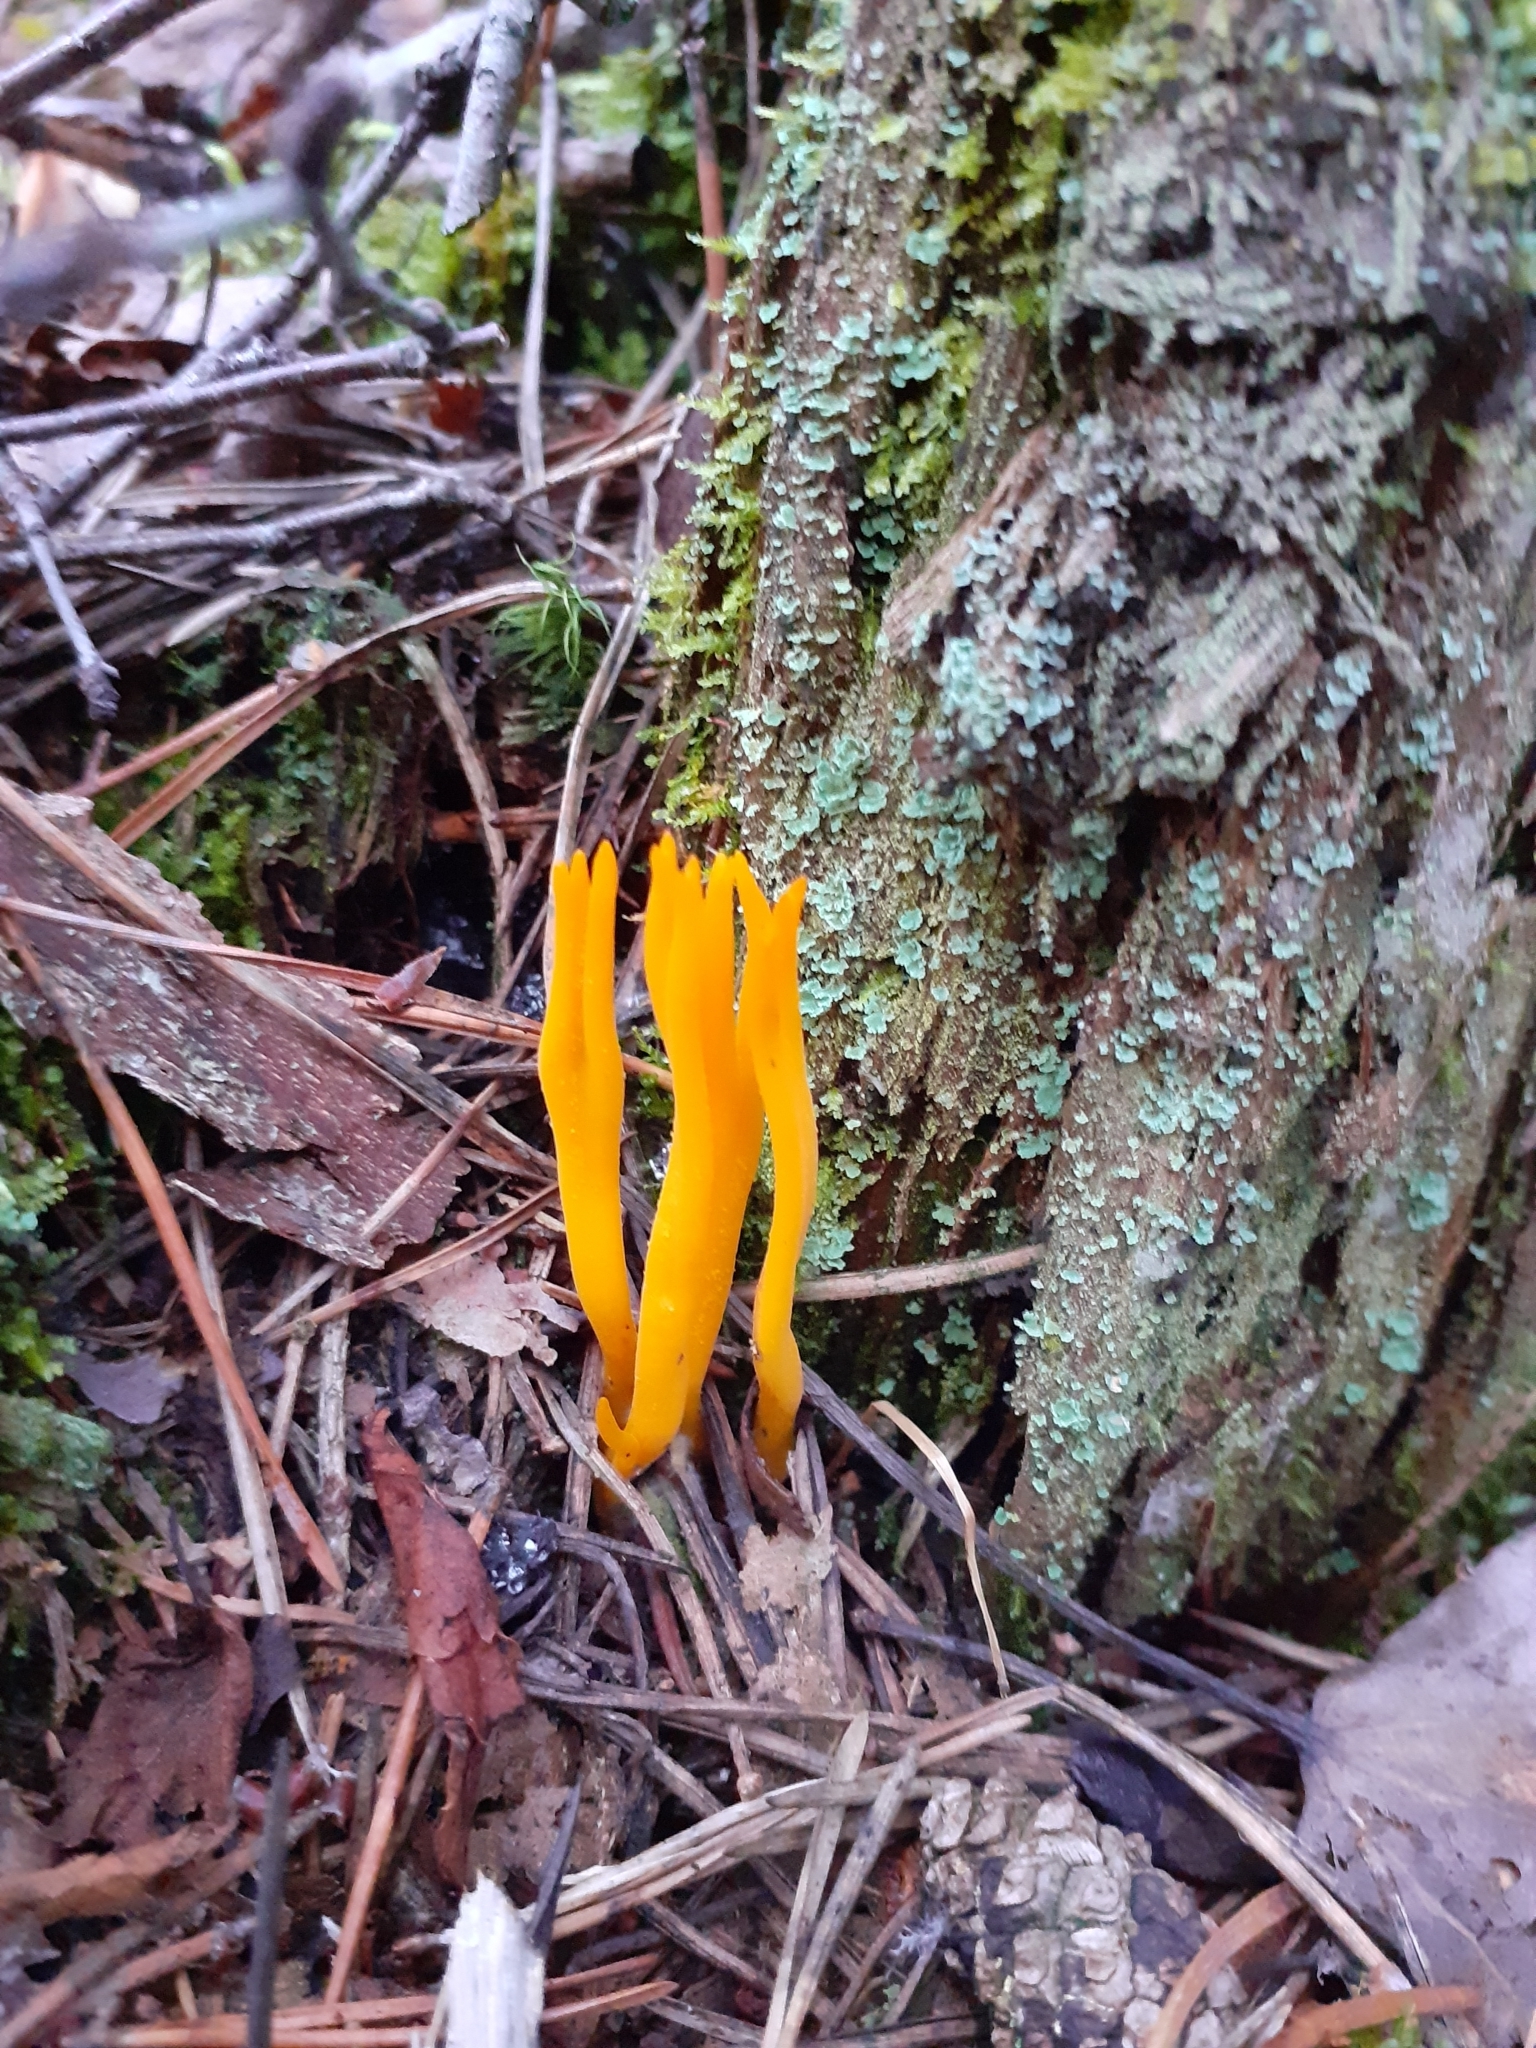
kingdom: Fungi
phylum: Basidiomycota
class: Dacrymycetes
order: Dacrymycetales
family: Dacrymycetaceae
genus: Calocera
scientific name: Calocera viscosa
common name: Yellow stagshorn
